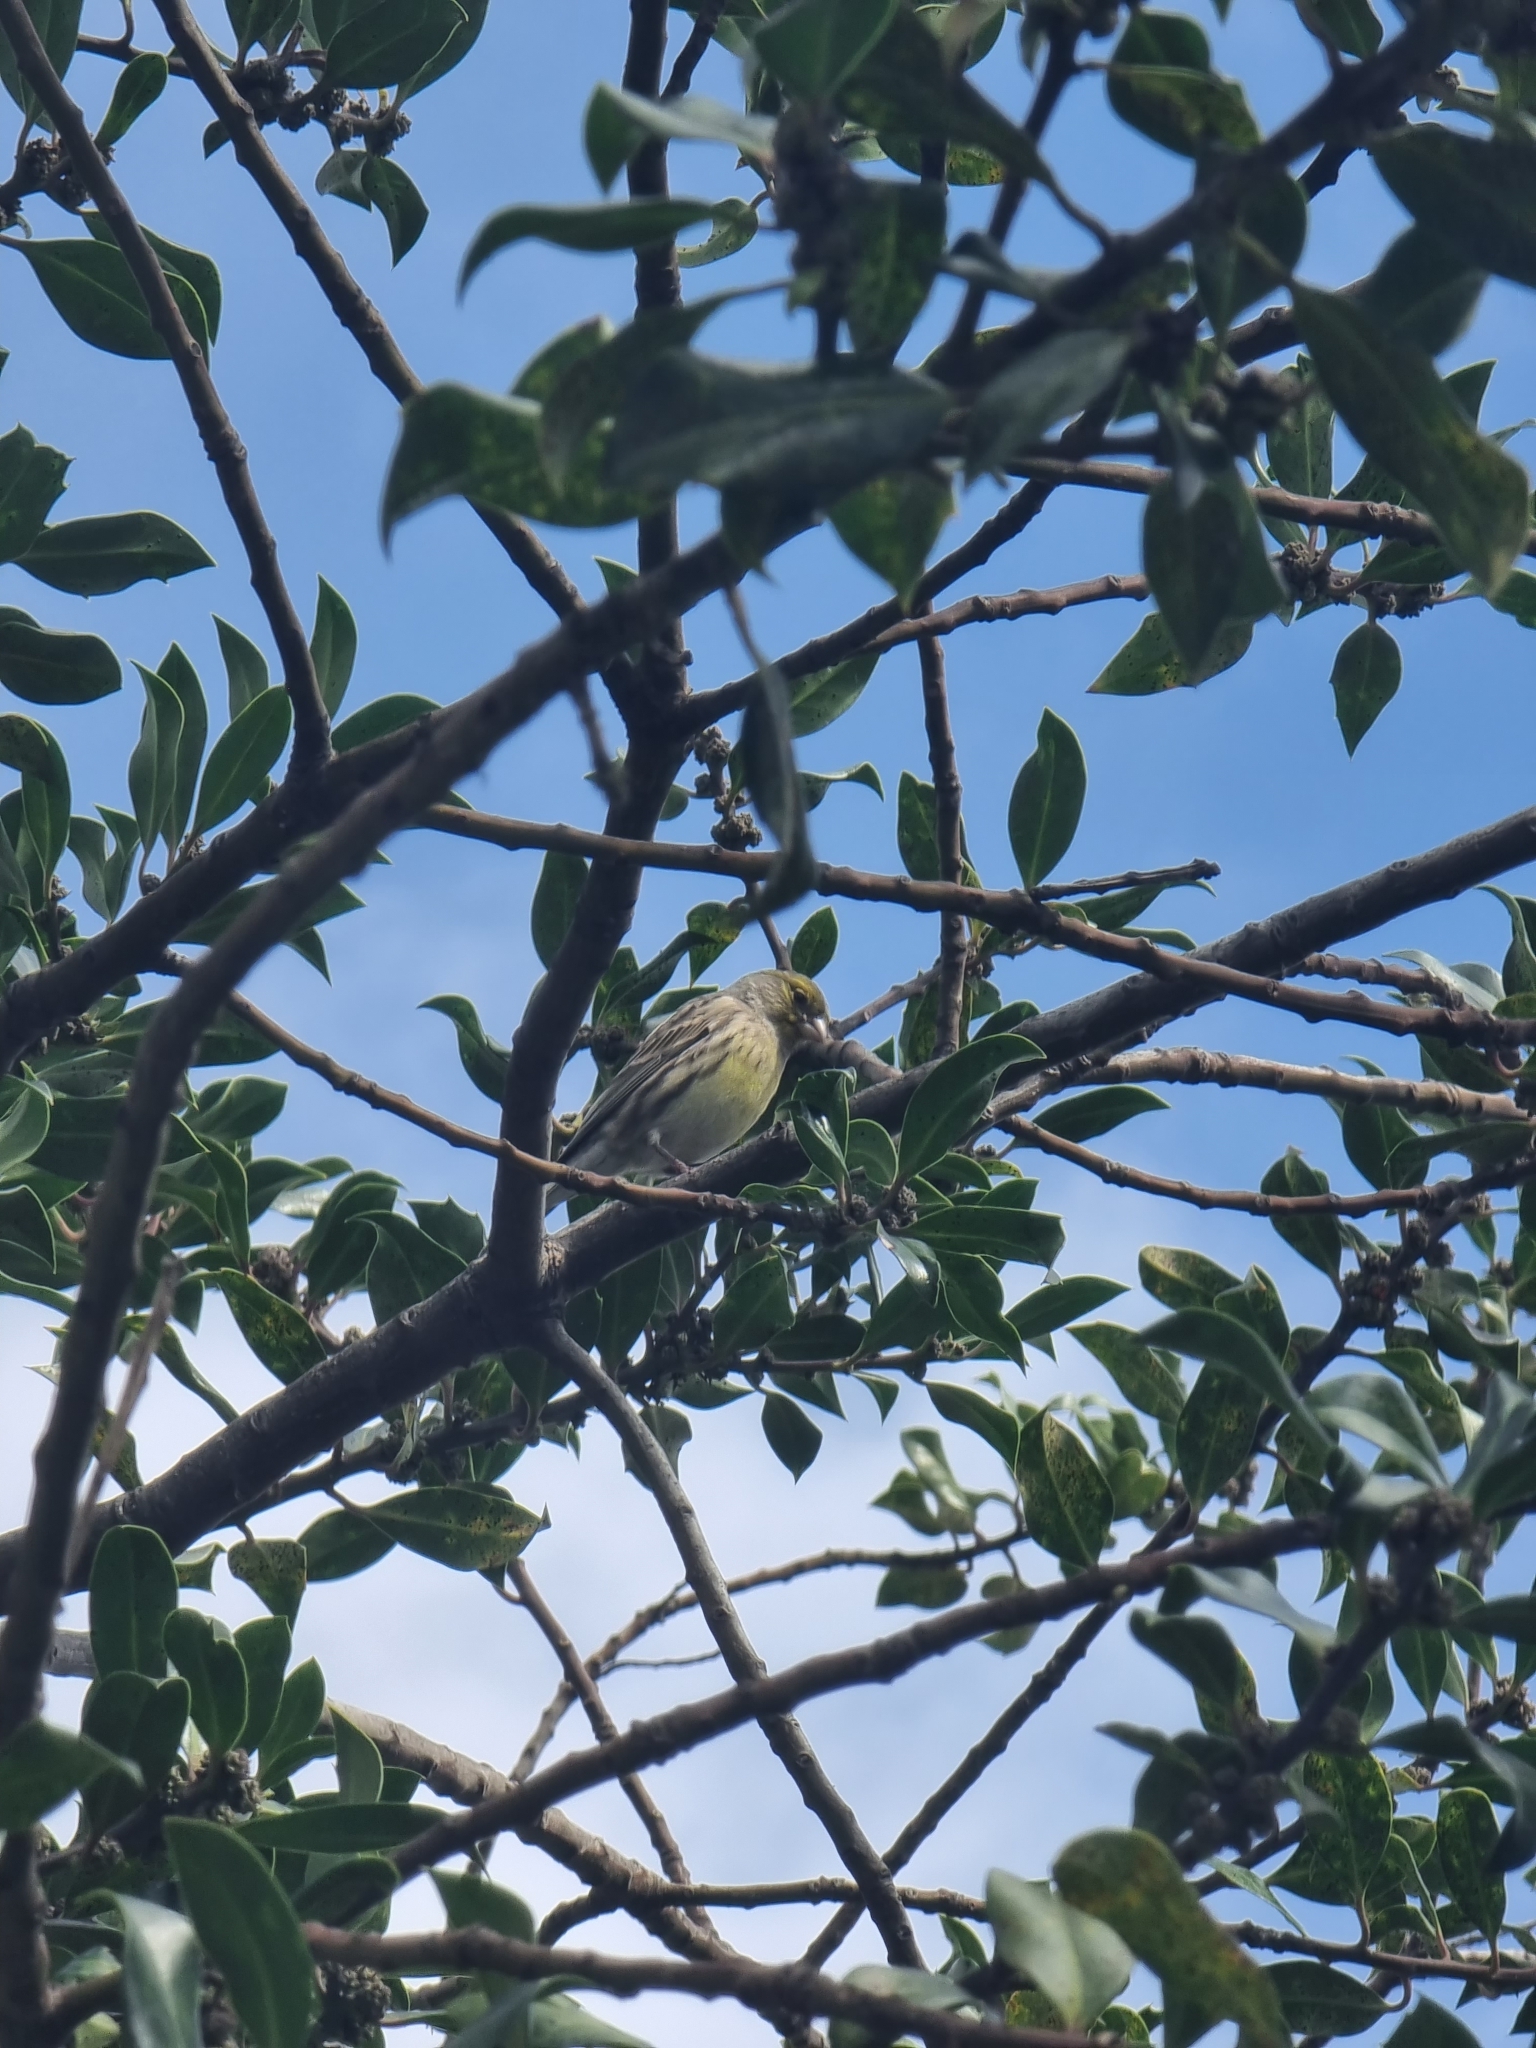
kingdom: Animalia
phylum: Chordata
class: Aves
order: Passeriformes
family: Fringillidae
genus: Serinus
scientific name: Serinus canaria
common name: Atlantic canary
